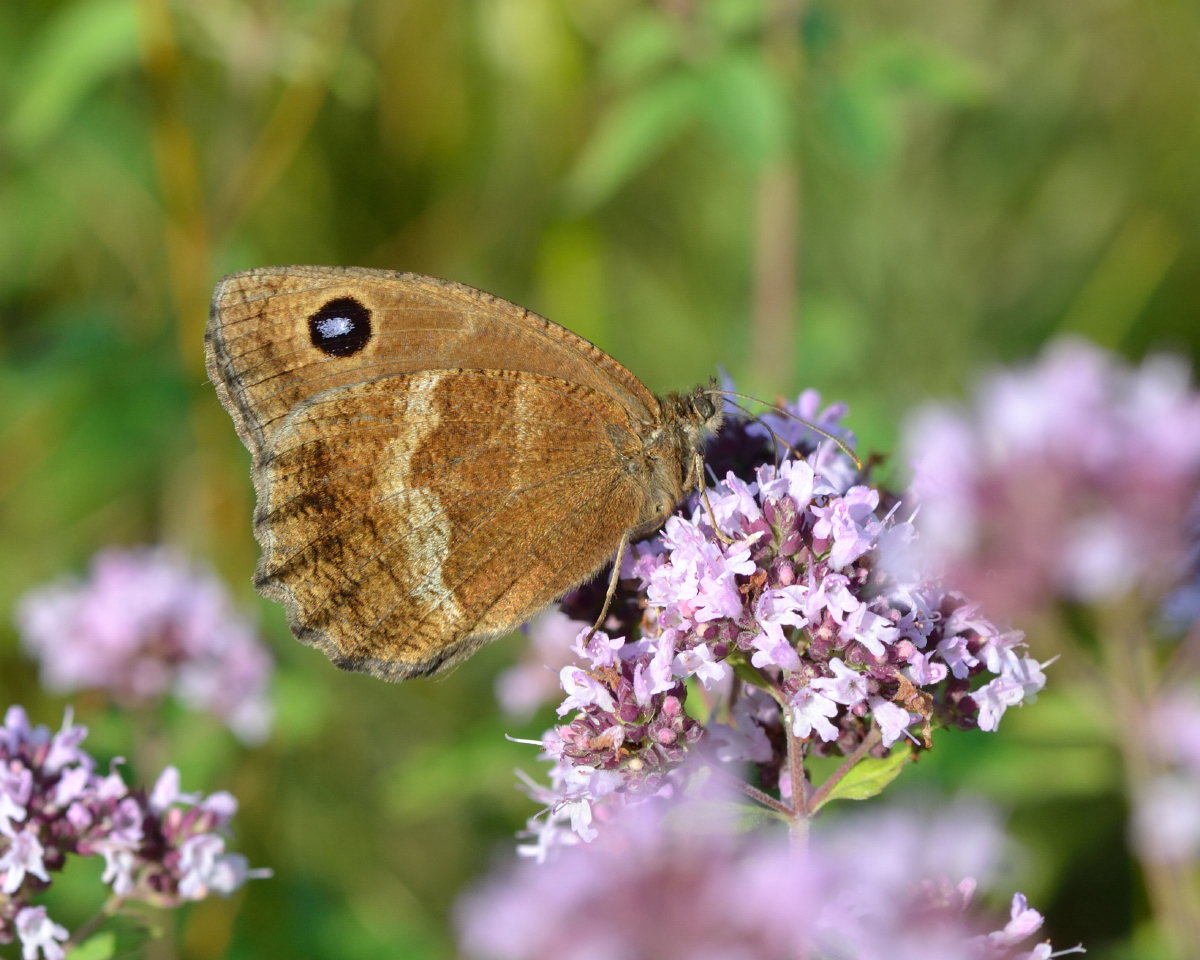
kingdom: Animalia
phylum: Arthropoda
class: Insecta
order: Lepidoptera
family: Nymphalidae
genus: Minois
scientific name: Minois dryas
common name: Dryad
